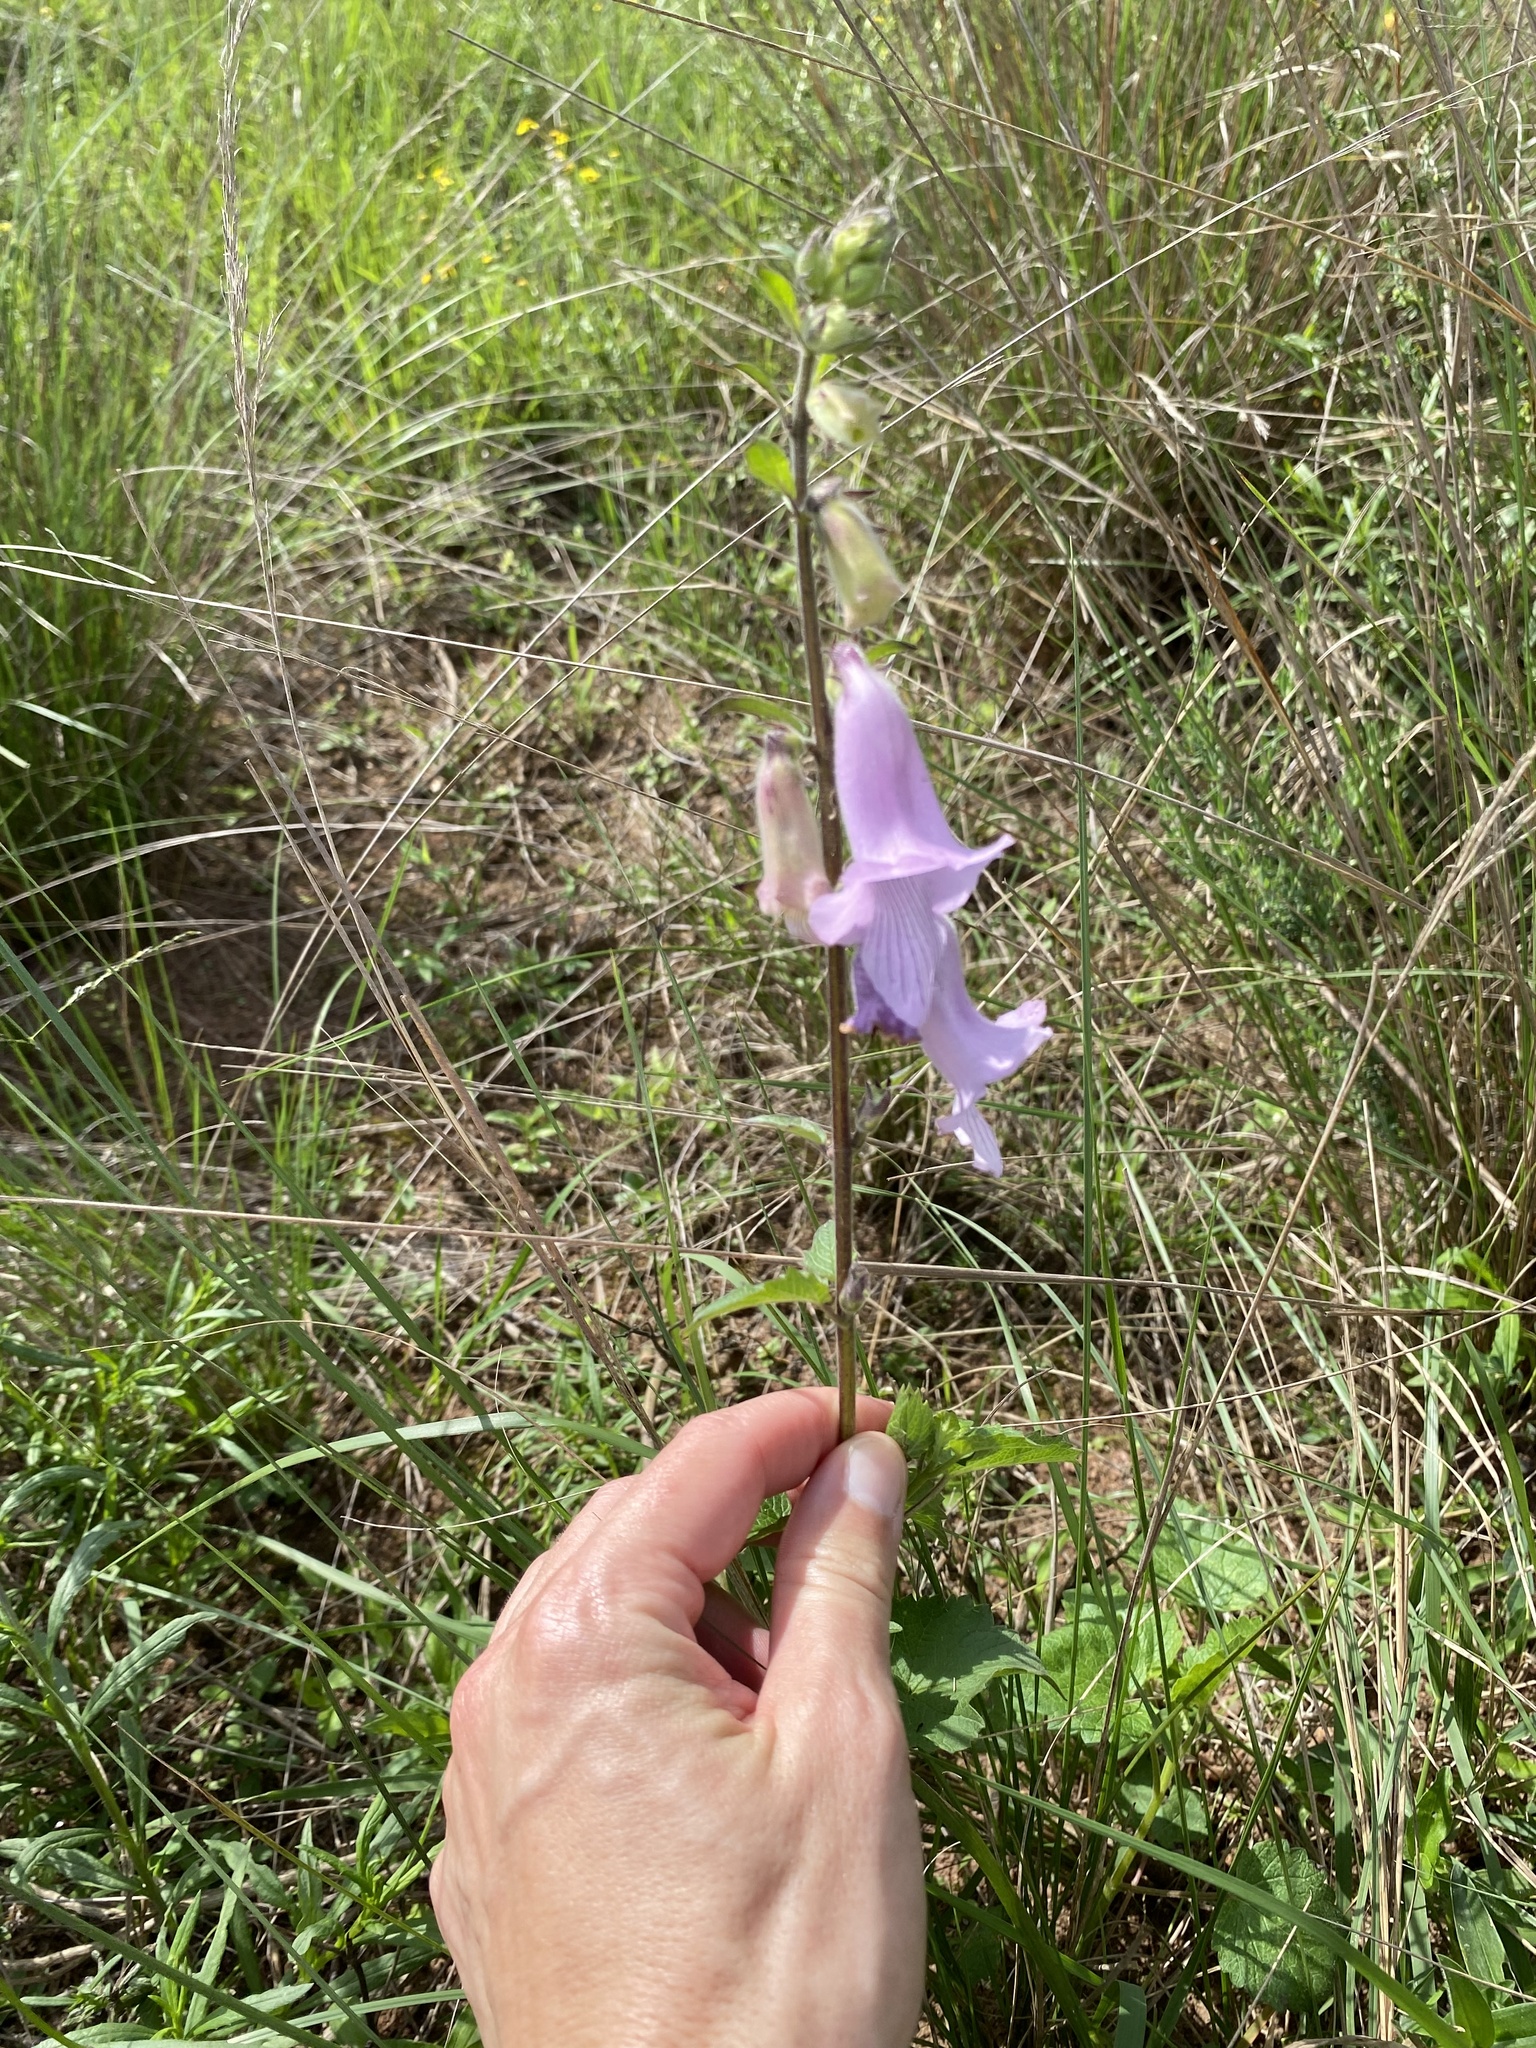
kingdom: Plantae
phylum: Tracheophyta
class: Magnoliopsida
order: Lamiales
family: Pedaliaceae
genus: Sesamum
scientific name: Sesamum trilobum
